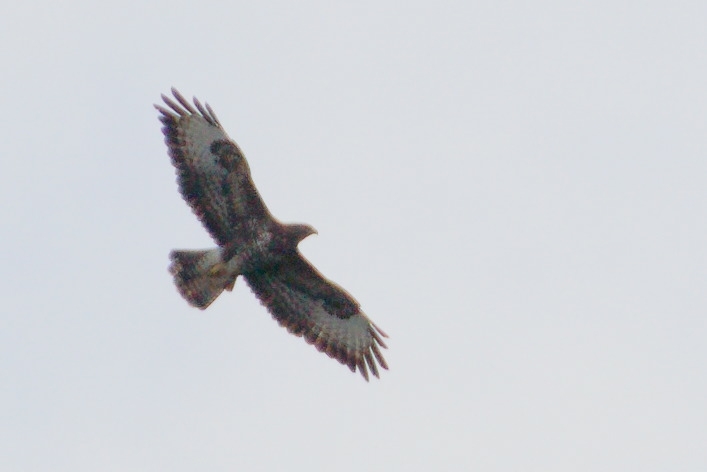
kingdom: Animalia
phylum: Chordata
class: Aves
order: Accipitriformes
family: Accipitridae
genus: Buteo
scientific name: Buteo buteo
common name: Common buzzard
